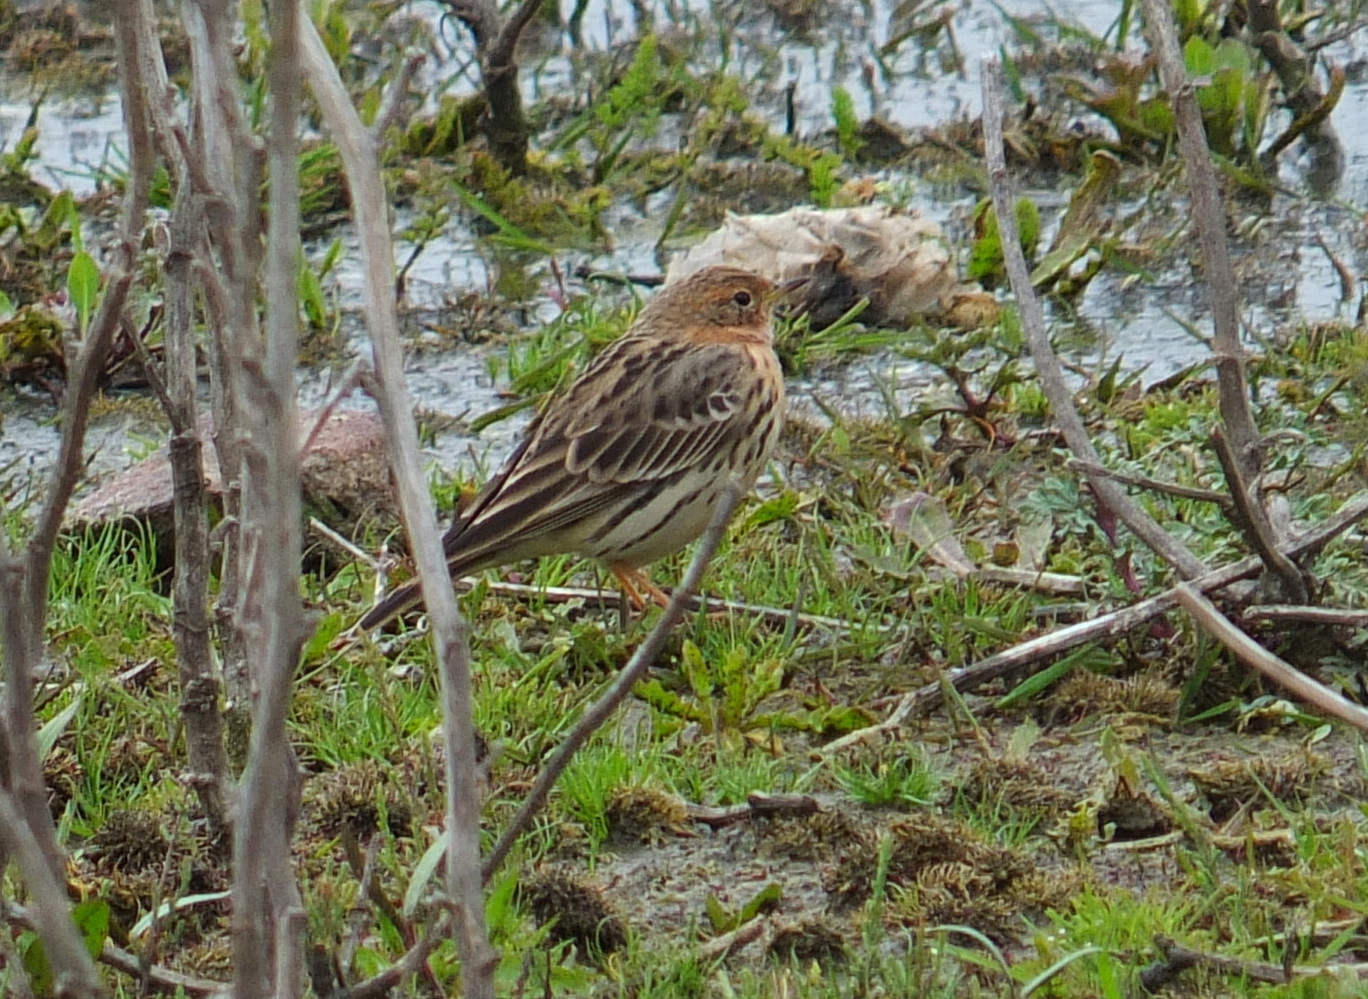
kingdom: Animalia
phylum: Chordata
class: Aves
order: Passeriformes
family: Motacillidae
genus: Anthus
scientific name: Anthus cervinus
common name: Red-throated pipit
